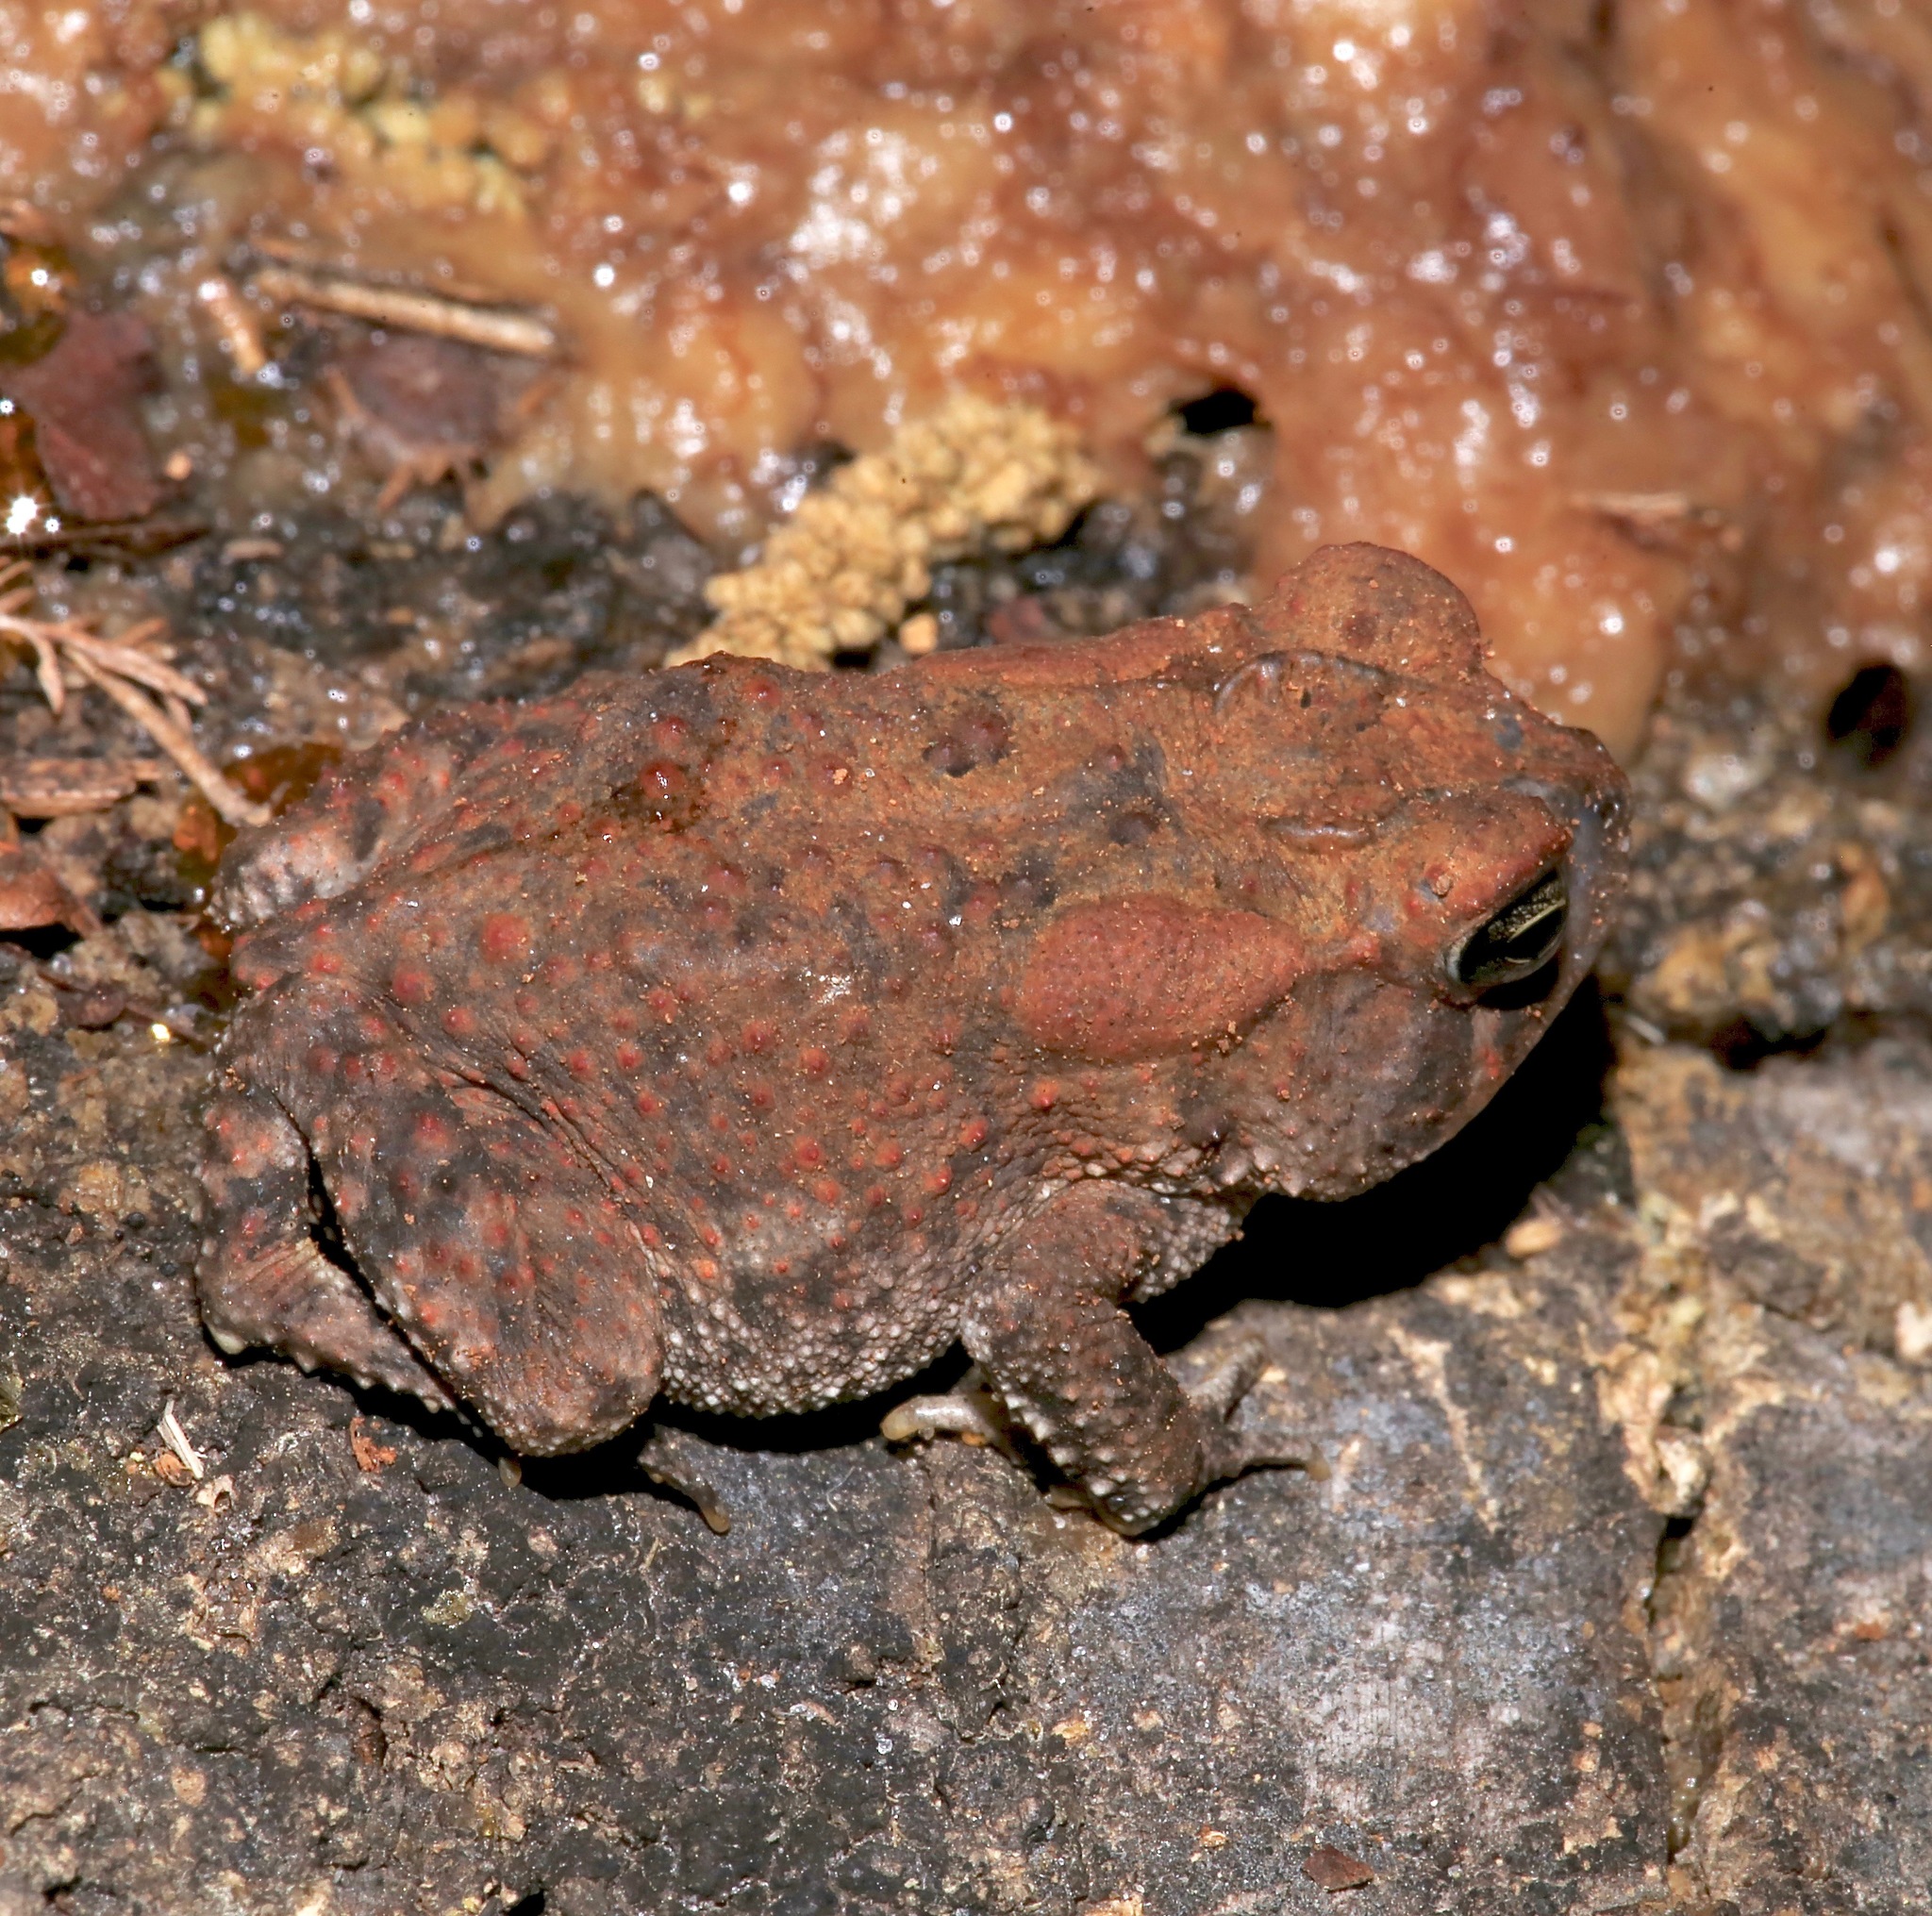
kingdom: Animalia
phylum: Chordata
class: Amphibia
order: Anura
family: Bufonidae
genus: Anaxyrus
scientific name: Anaxyrus terrestris
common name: Southern toad
